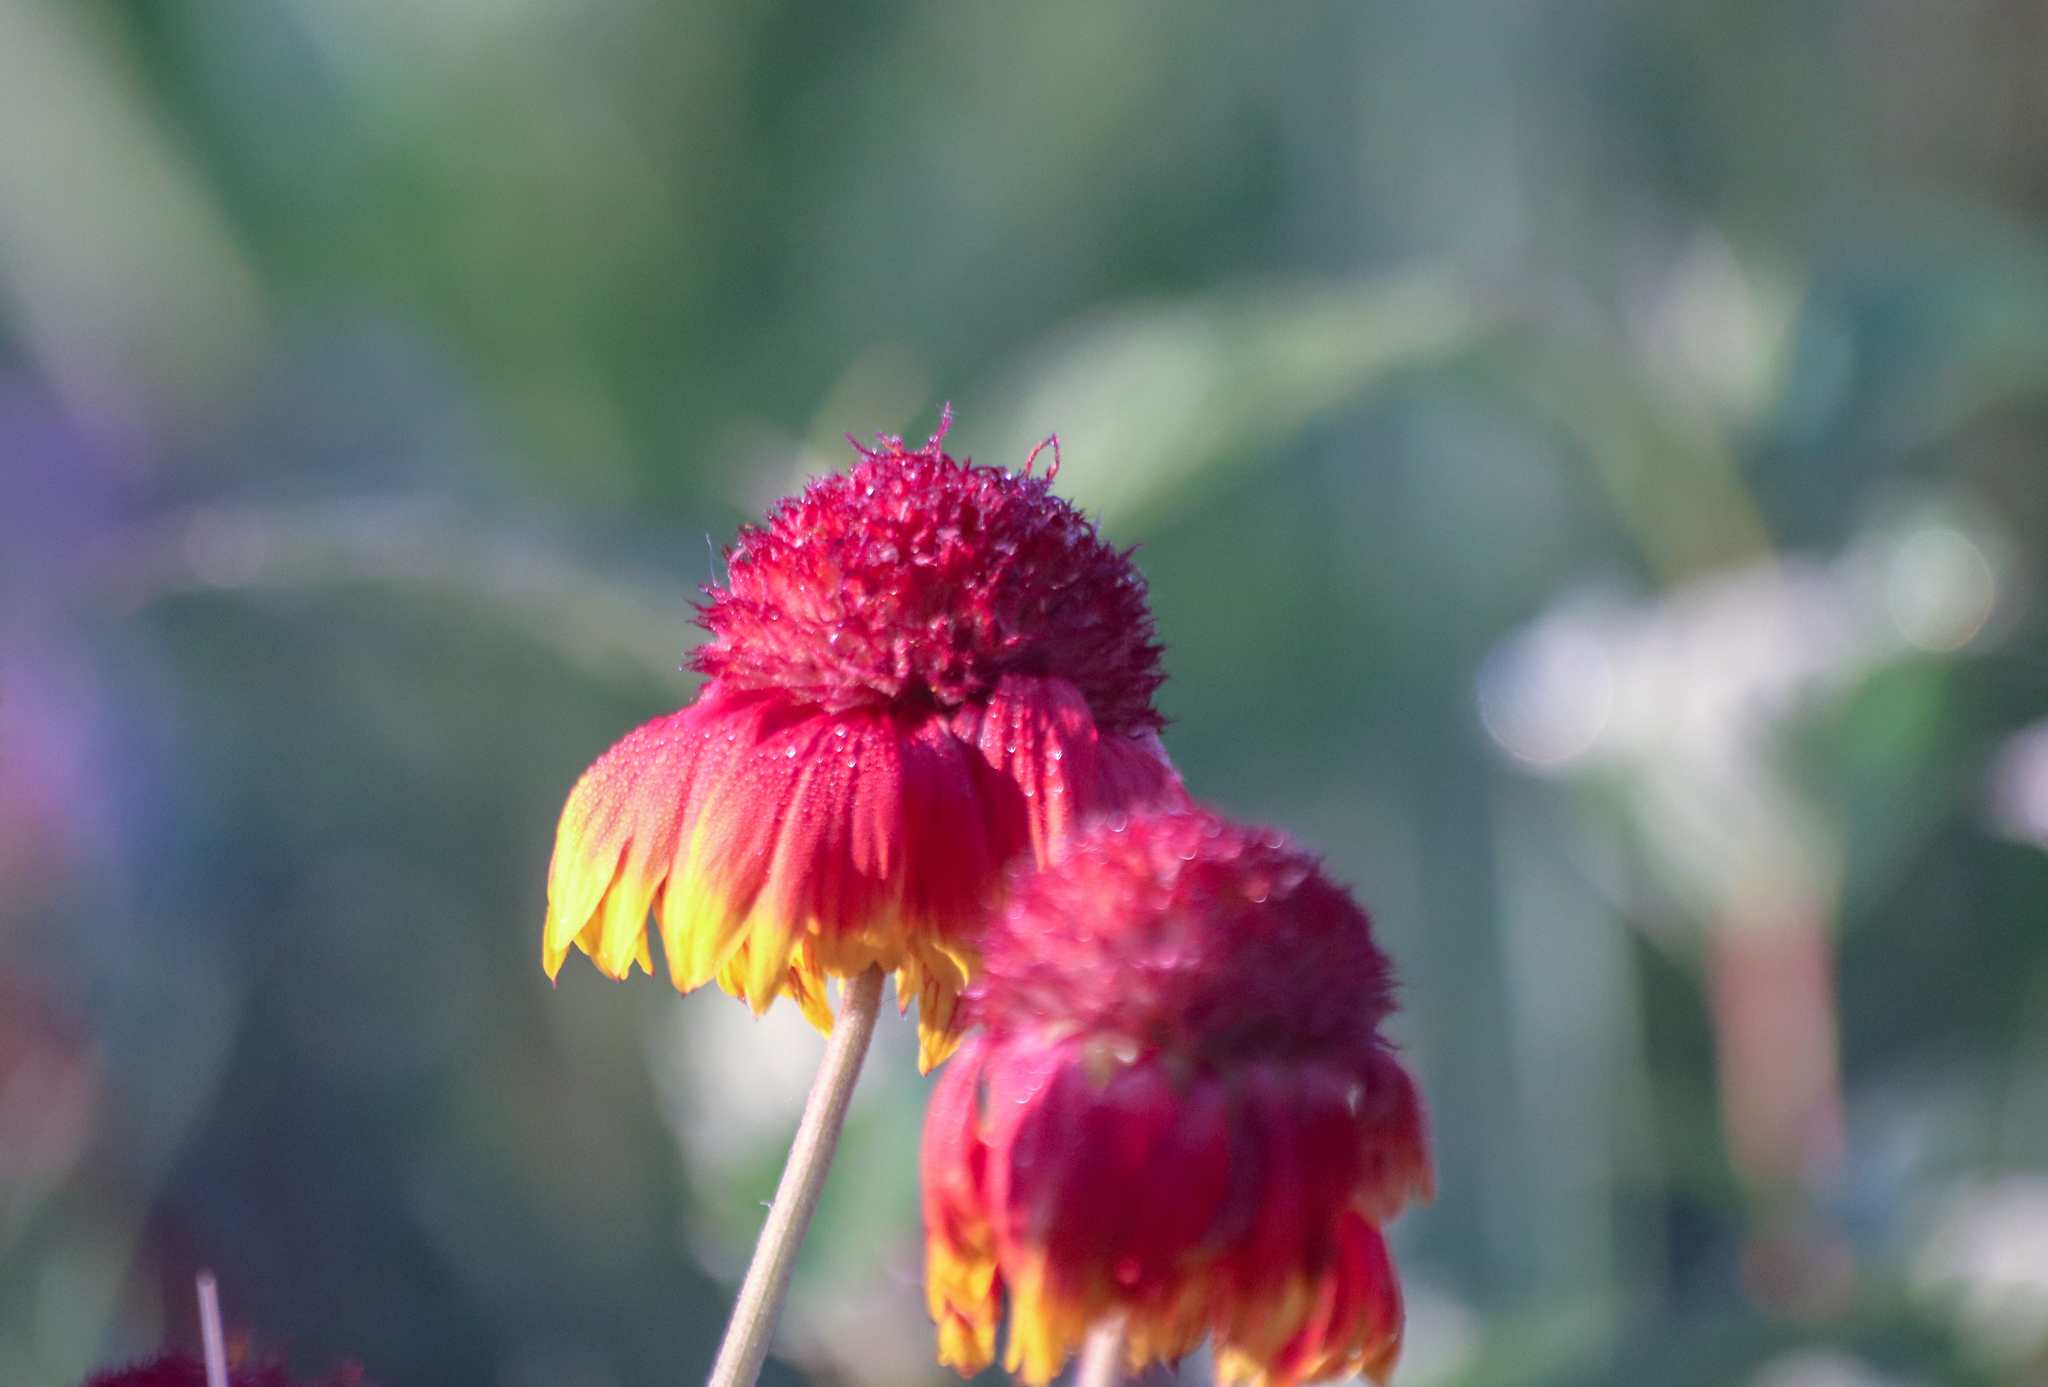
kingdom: Plantae
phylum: Tracheophyta
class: Magnoliopsida
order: Asterales
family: Asteraceae
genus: Gaillardia
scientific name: Gaillardia pulchella
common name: Firewheel
